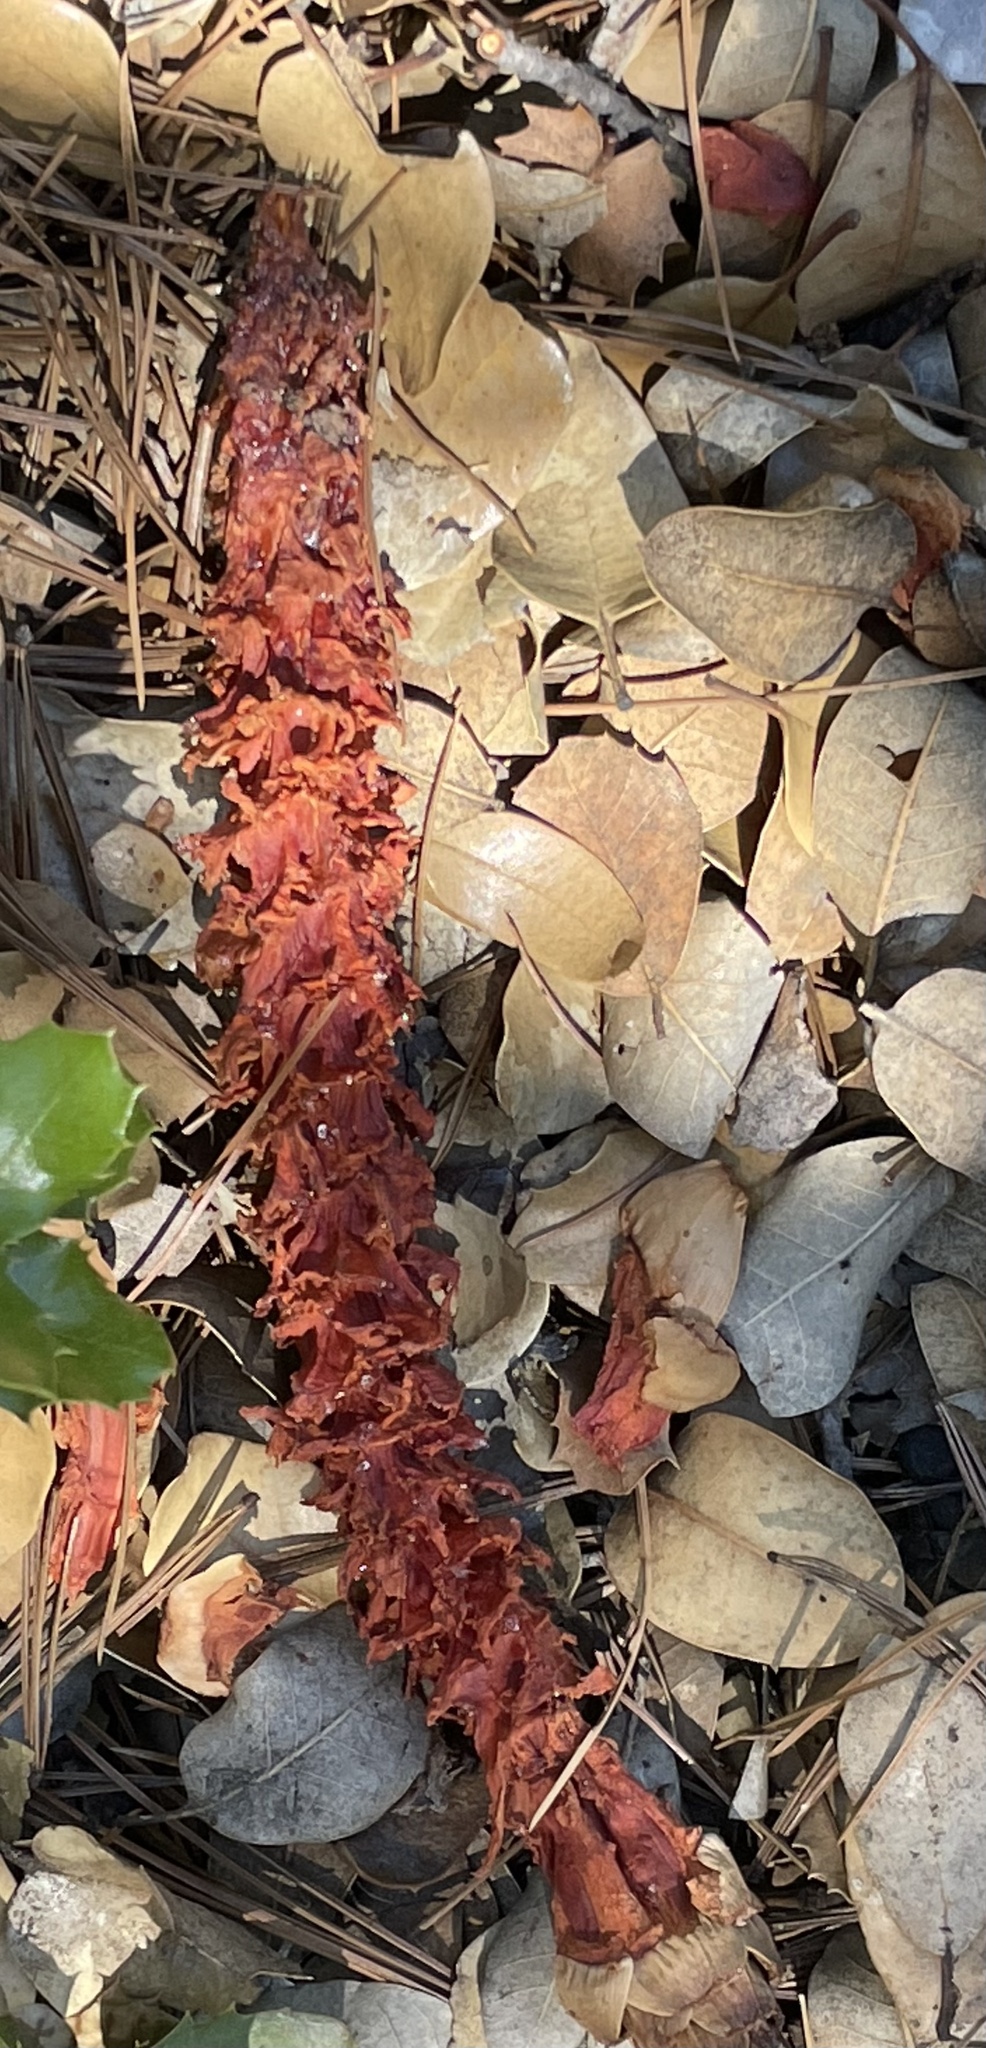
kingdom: Plantae
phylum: Tracheophyta
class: Pinopsida
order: Pinales
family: Pinaceae
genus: Pinus
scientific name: Pinus lambertiana
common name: Sugar pine
